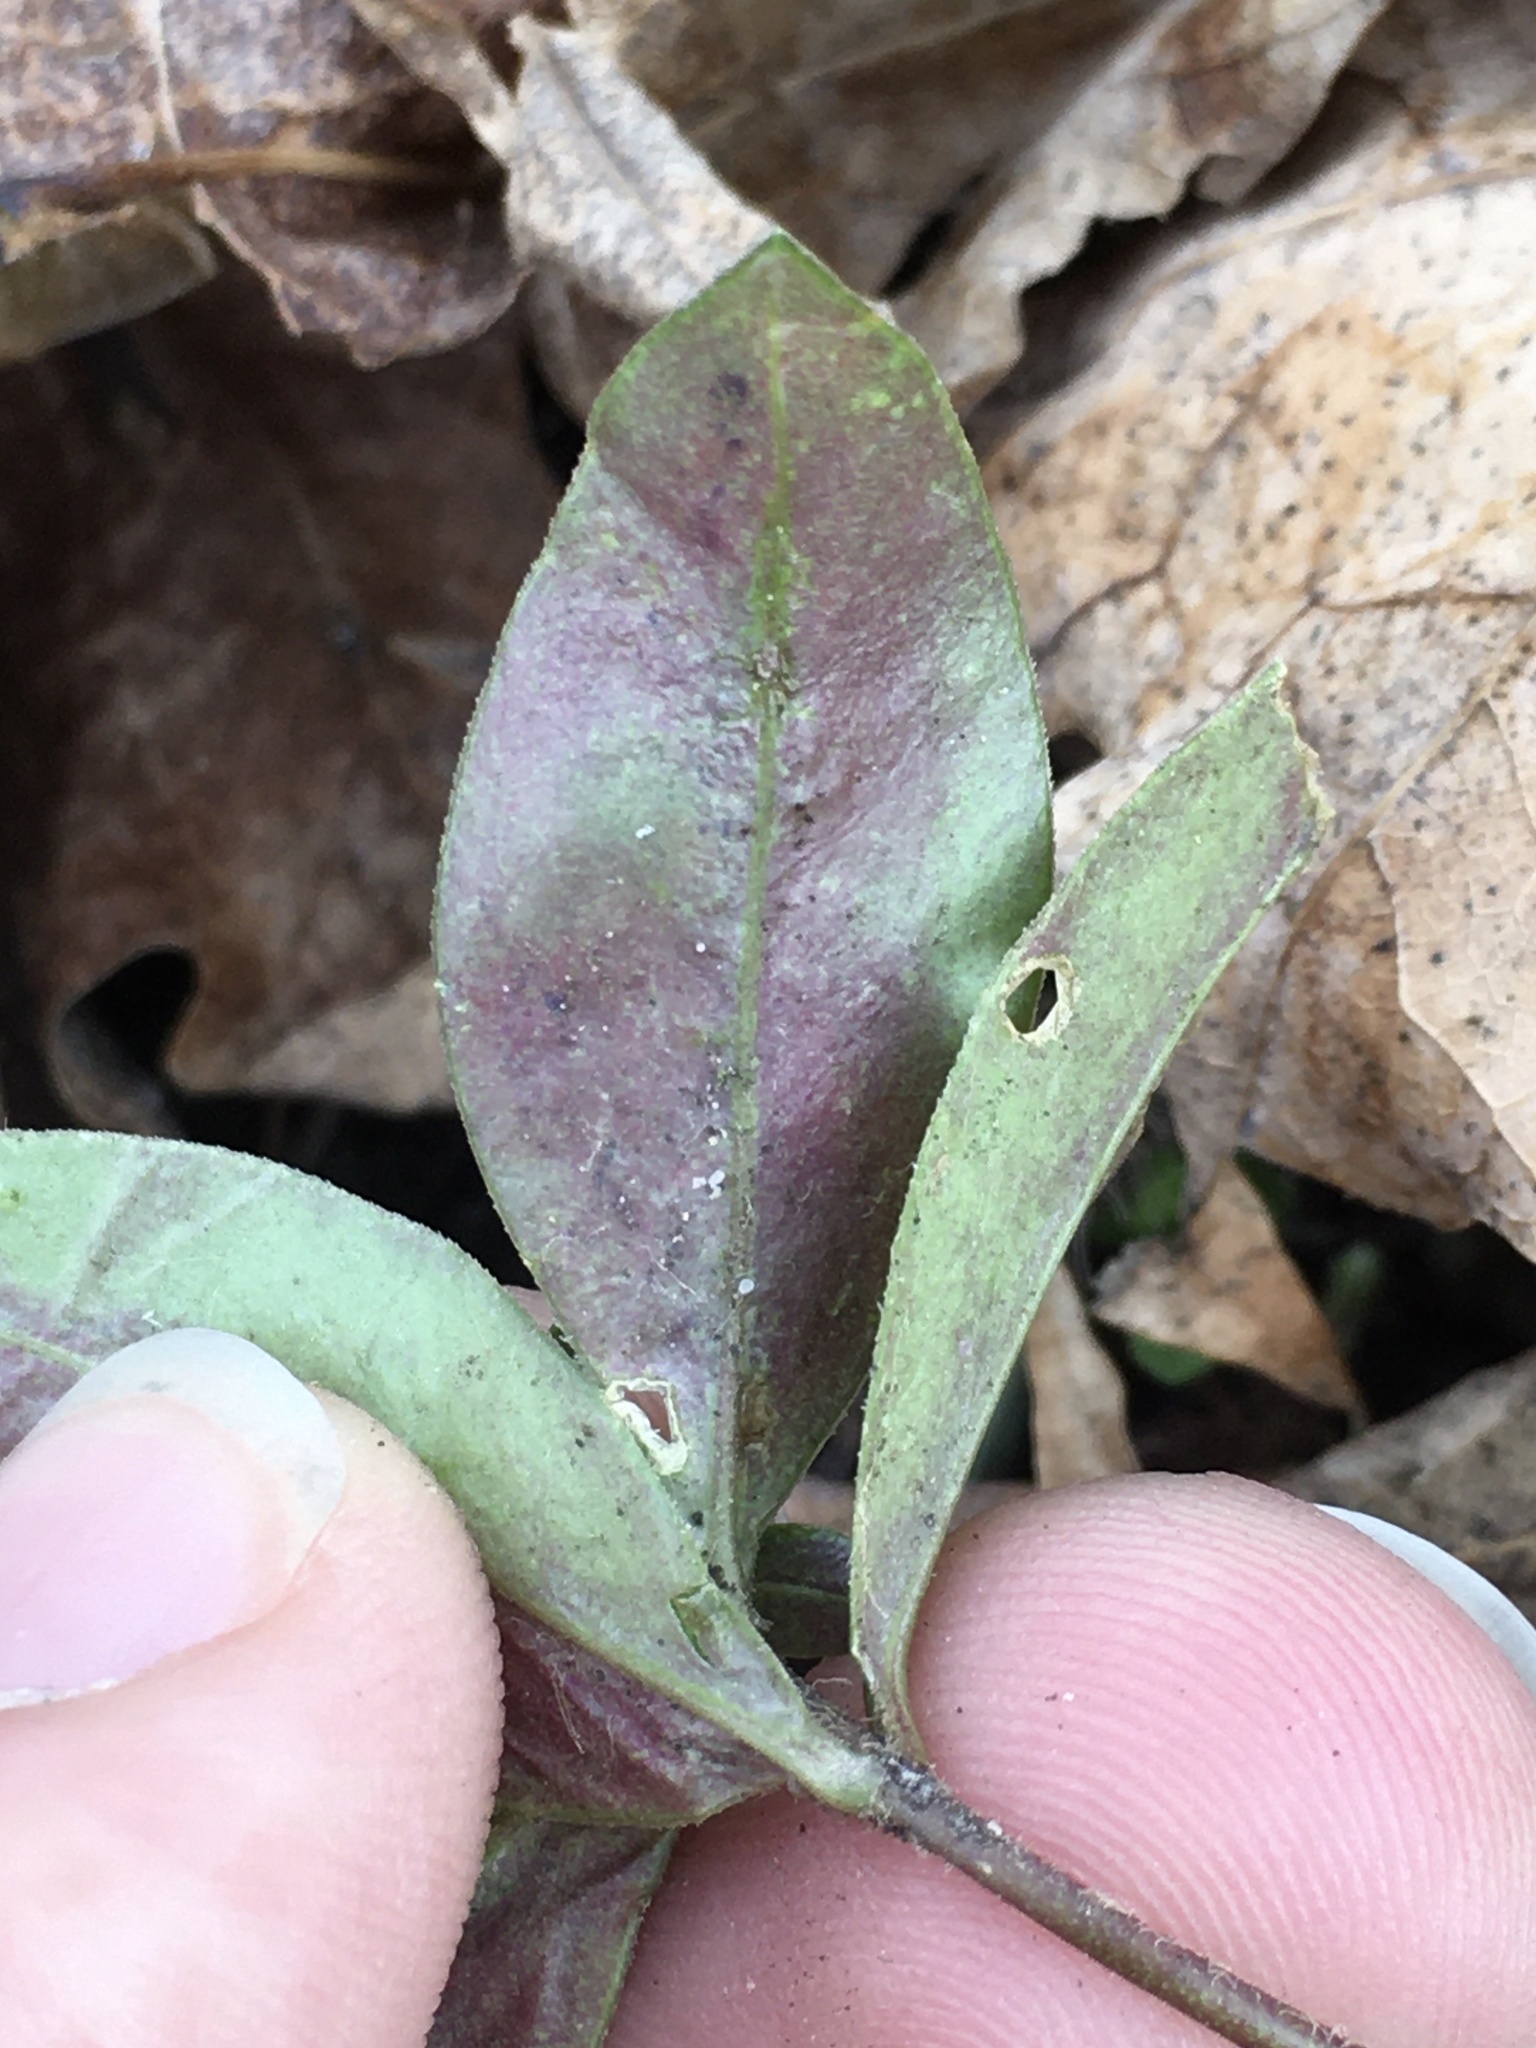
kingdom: Animalia
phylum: Arthropoda
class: Insecta
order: Diptera
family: Agromyzidae
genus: Liriomyza
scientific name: Liriomyza phloxiphaga
